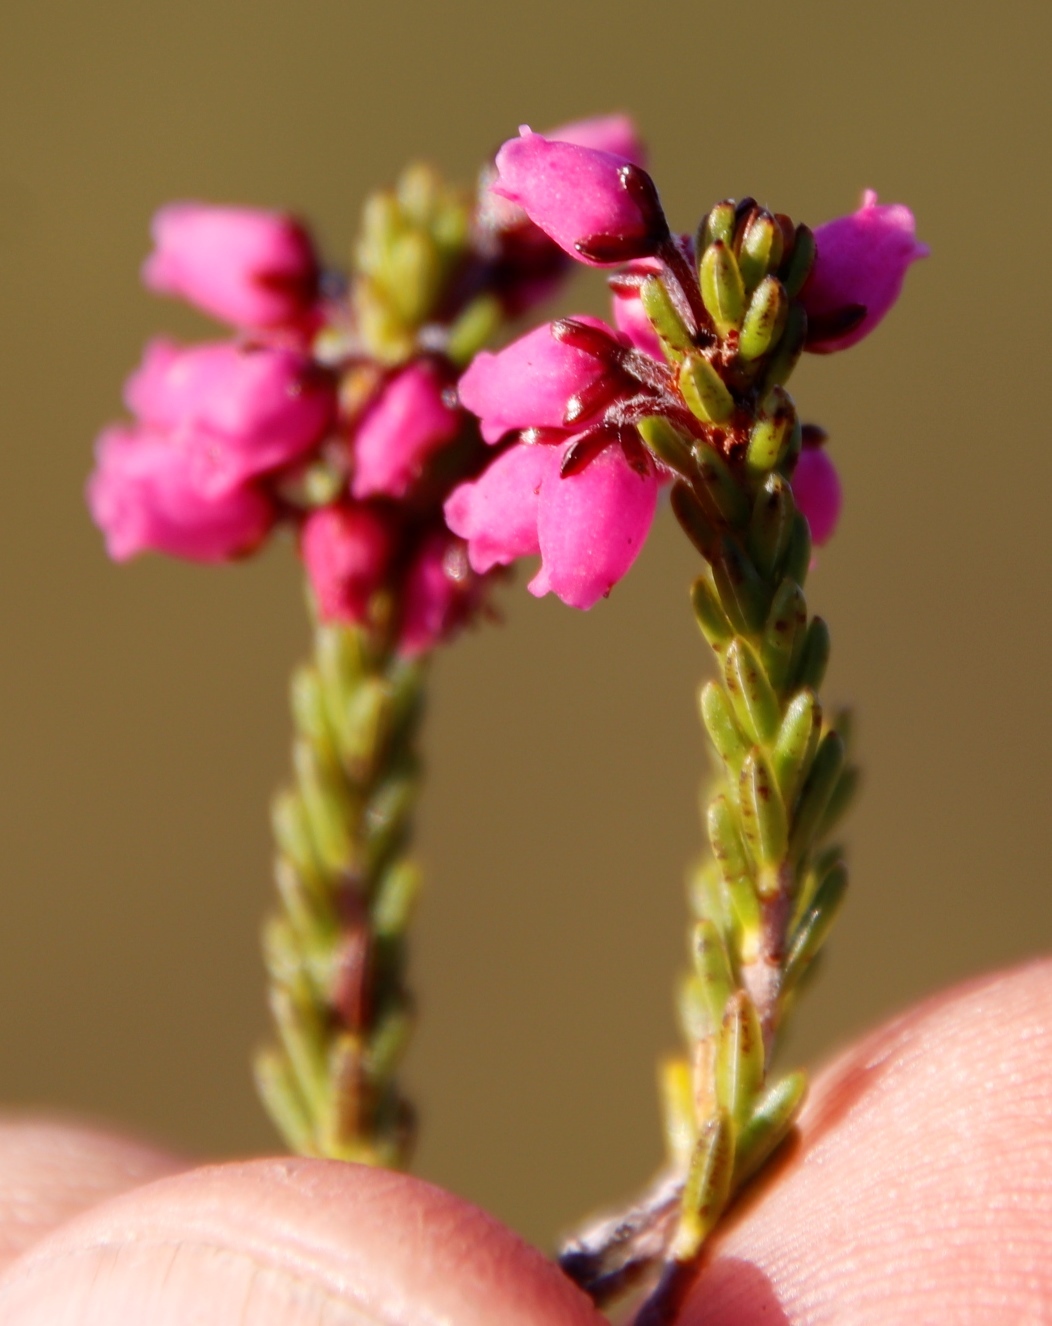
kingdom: Plantae
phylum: Tracheophyta
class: Magnoliopsida
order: Ericales
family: Ericaceae
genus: Erica
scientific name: Erica pulchella
